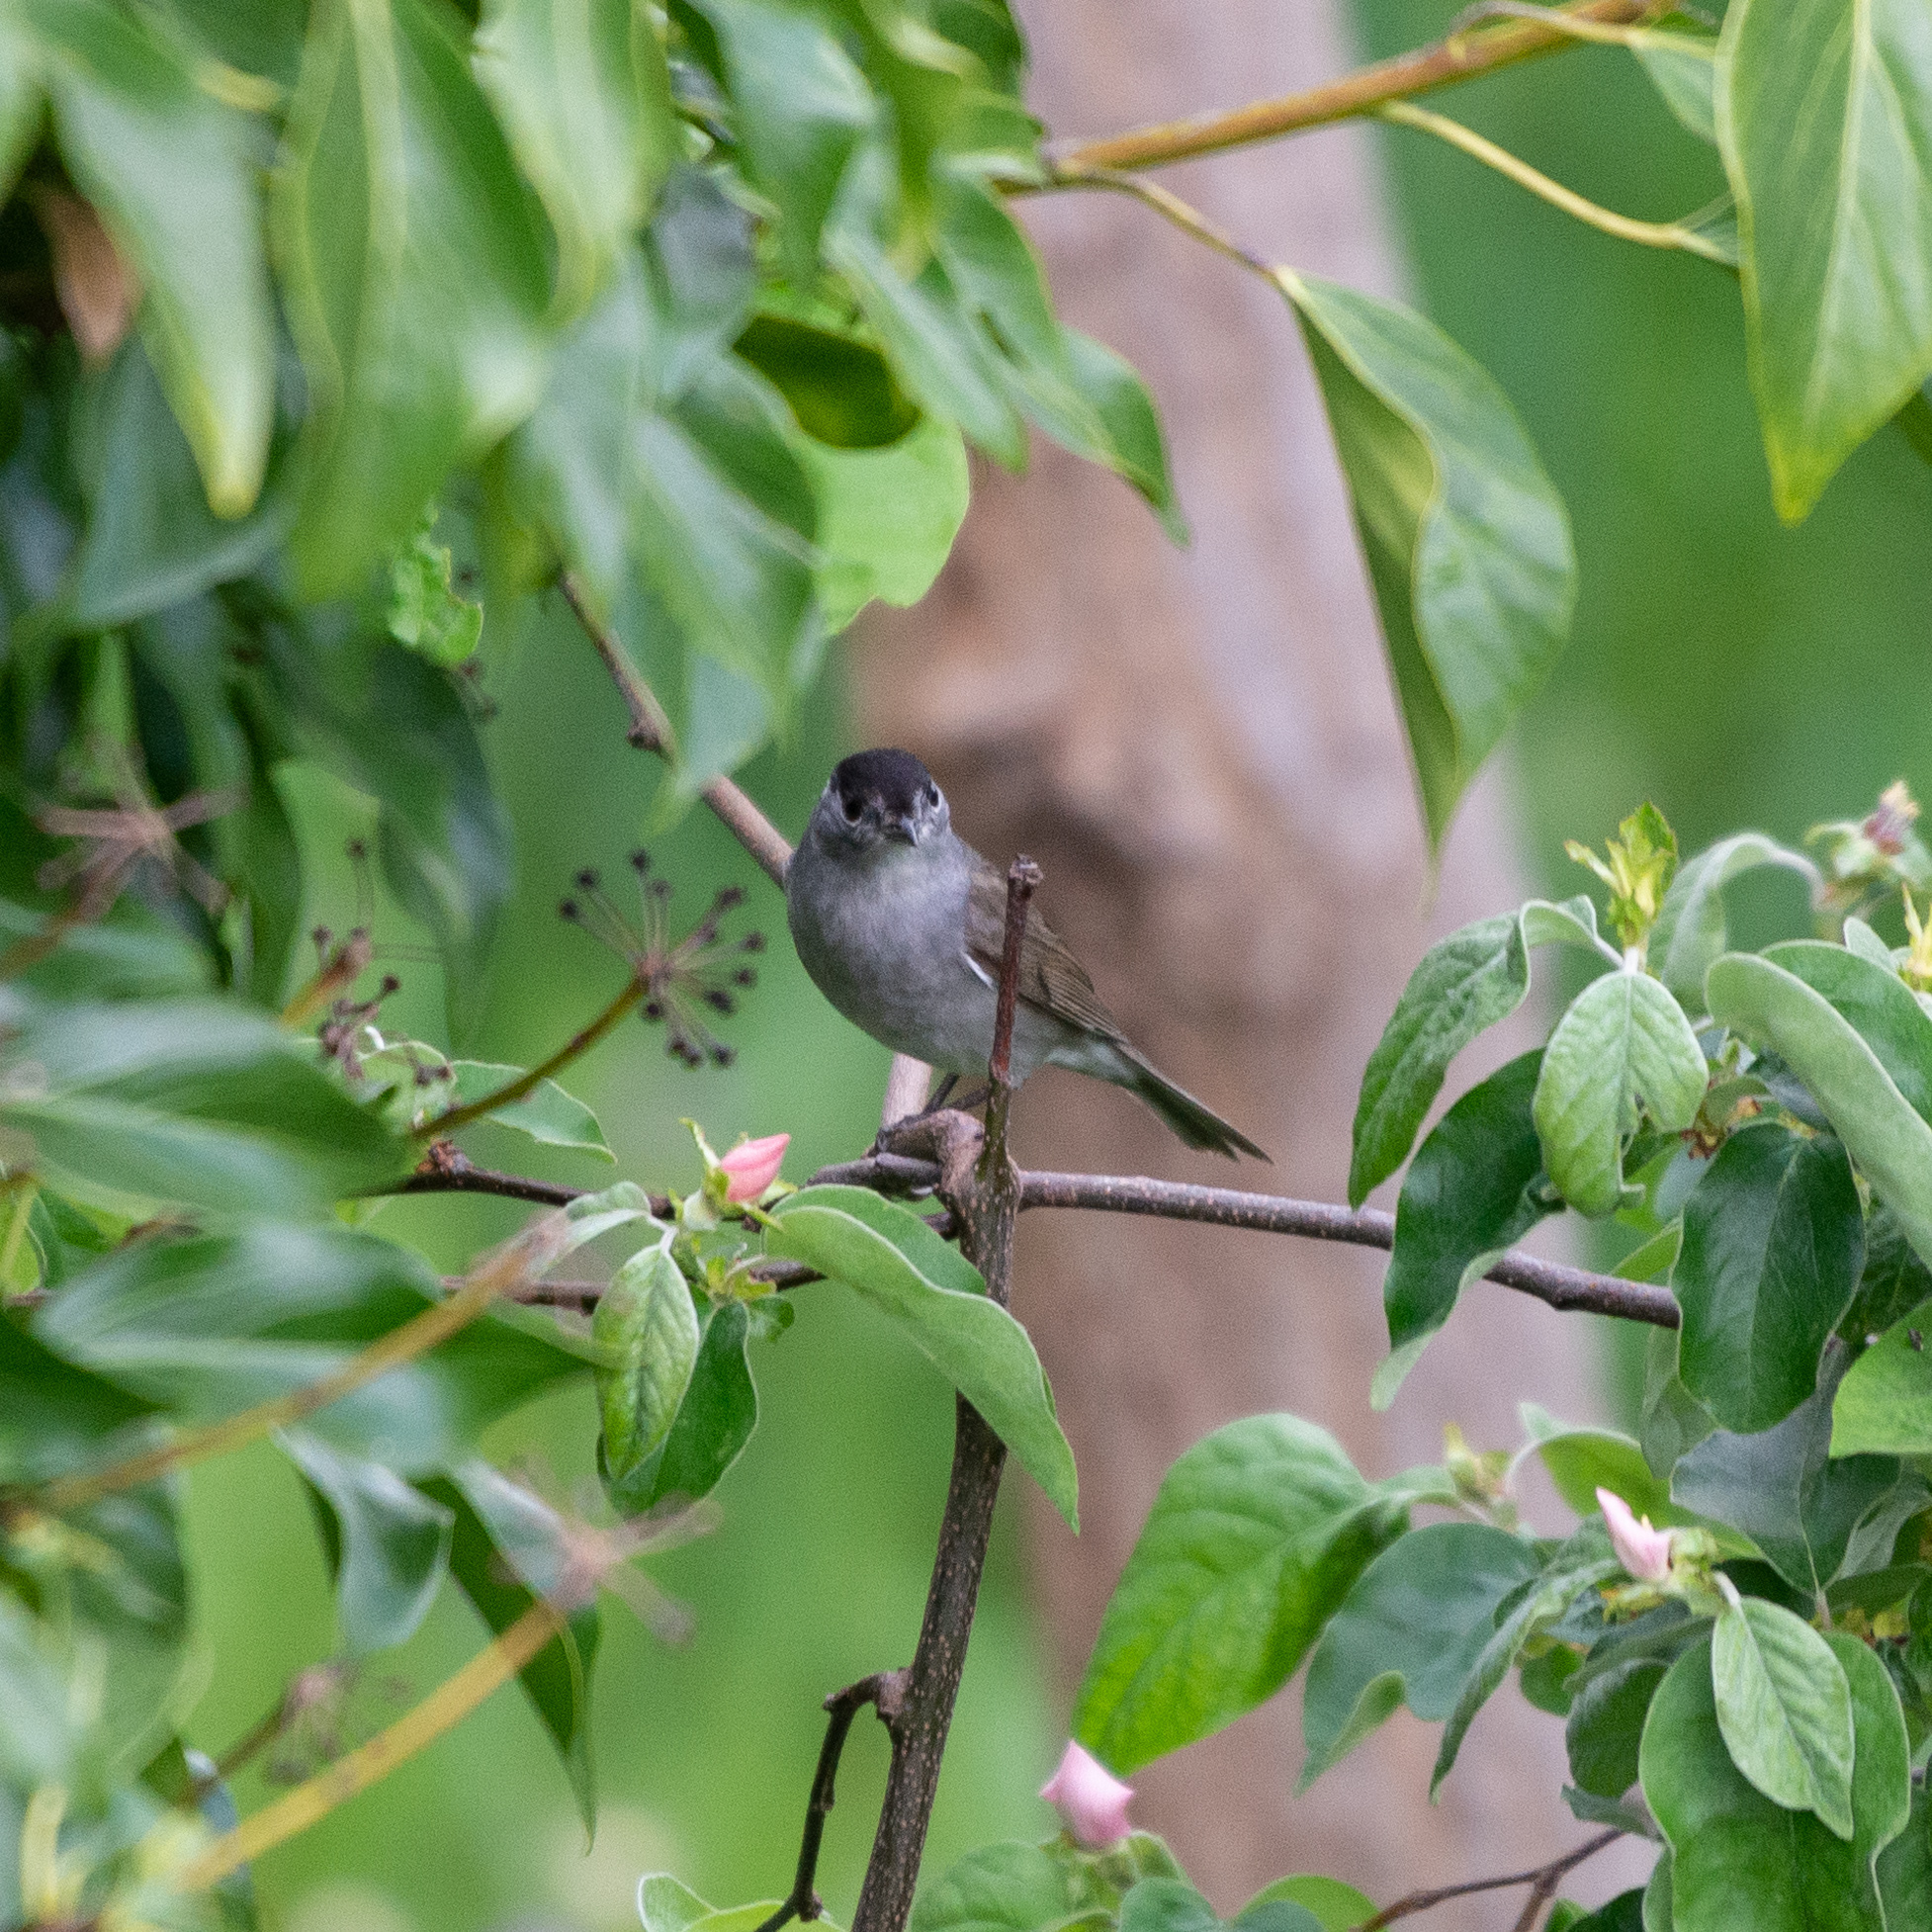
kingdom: Animalia
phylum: Chordata
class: Aves
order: Passeriformes
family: Sylviidae
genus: Sylvia
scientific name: Sylvia atricapilla
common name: Eurasian blackcap
